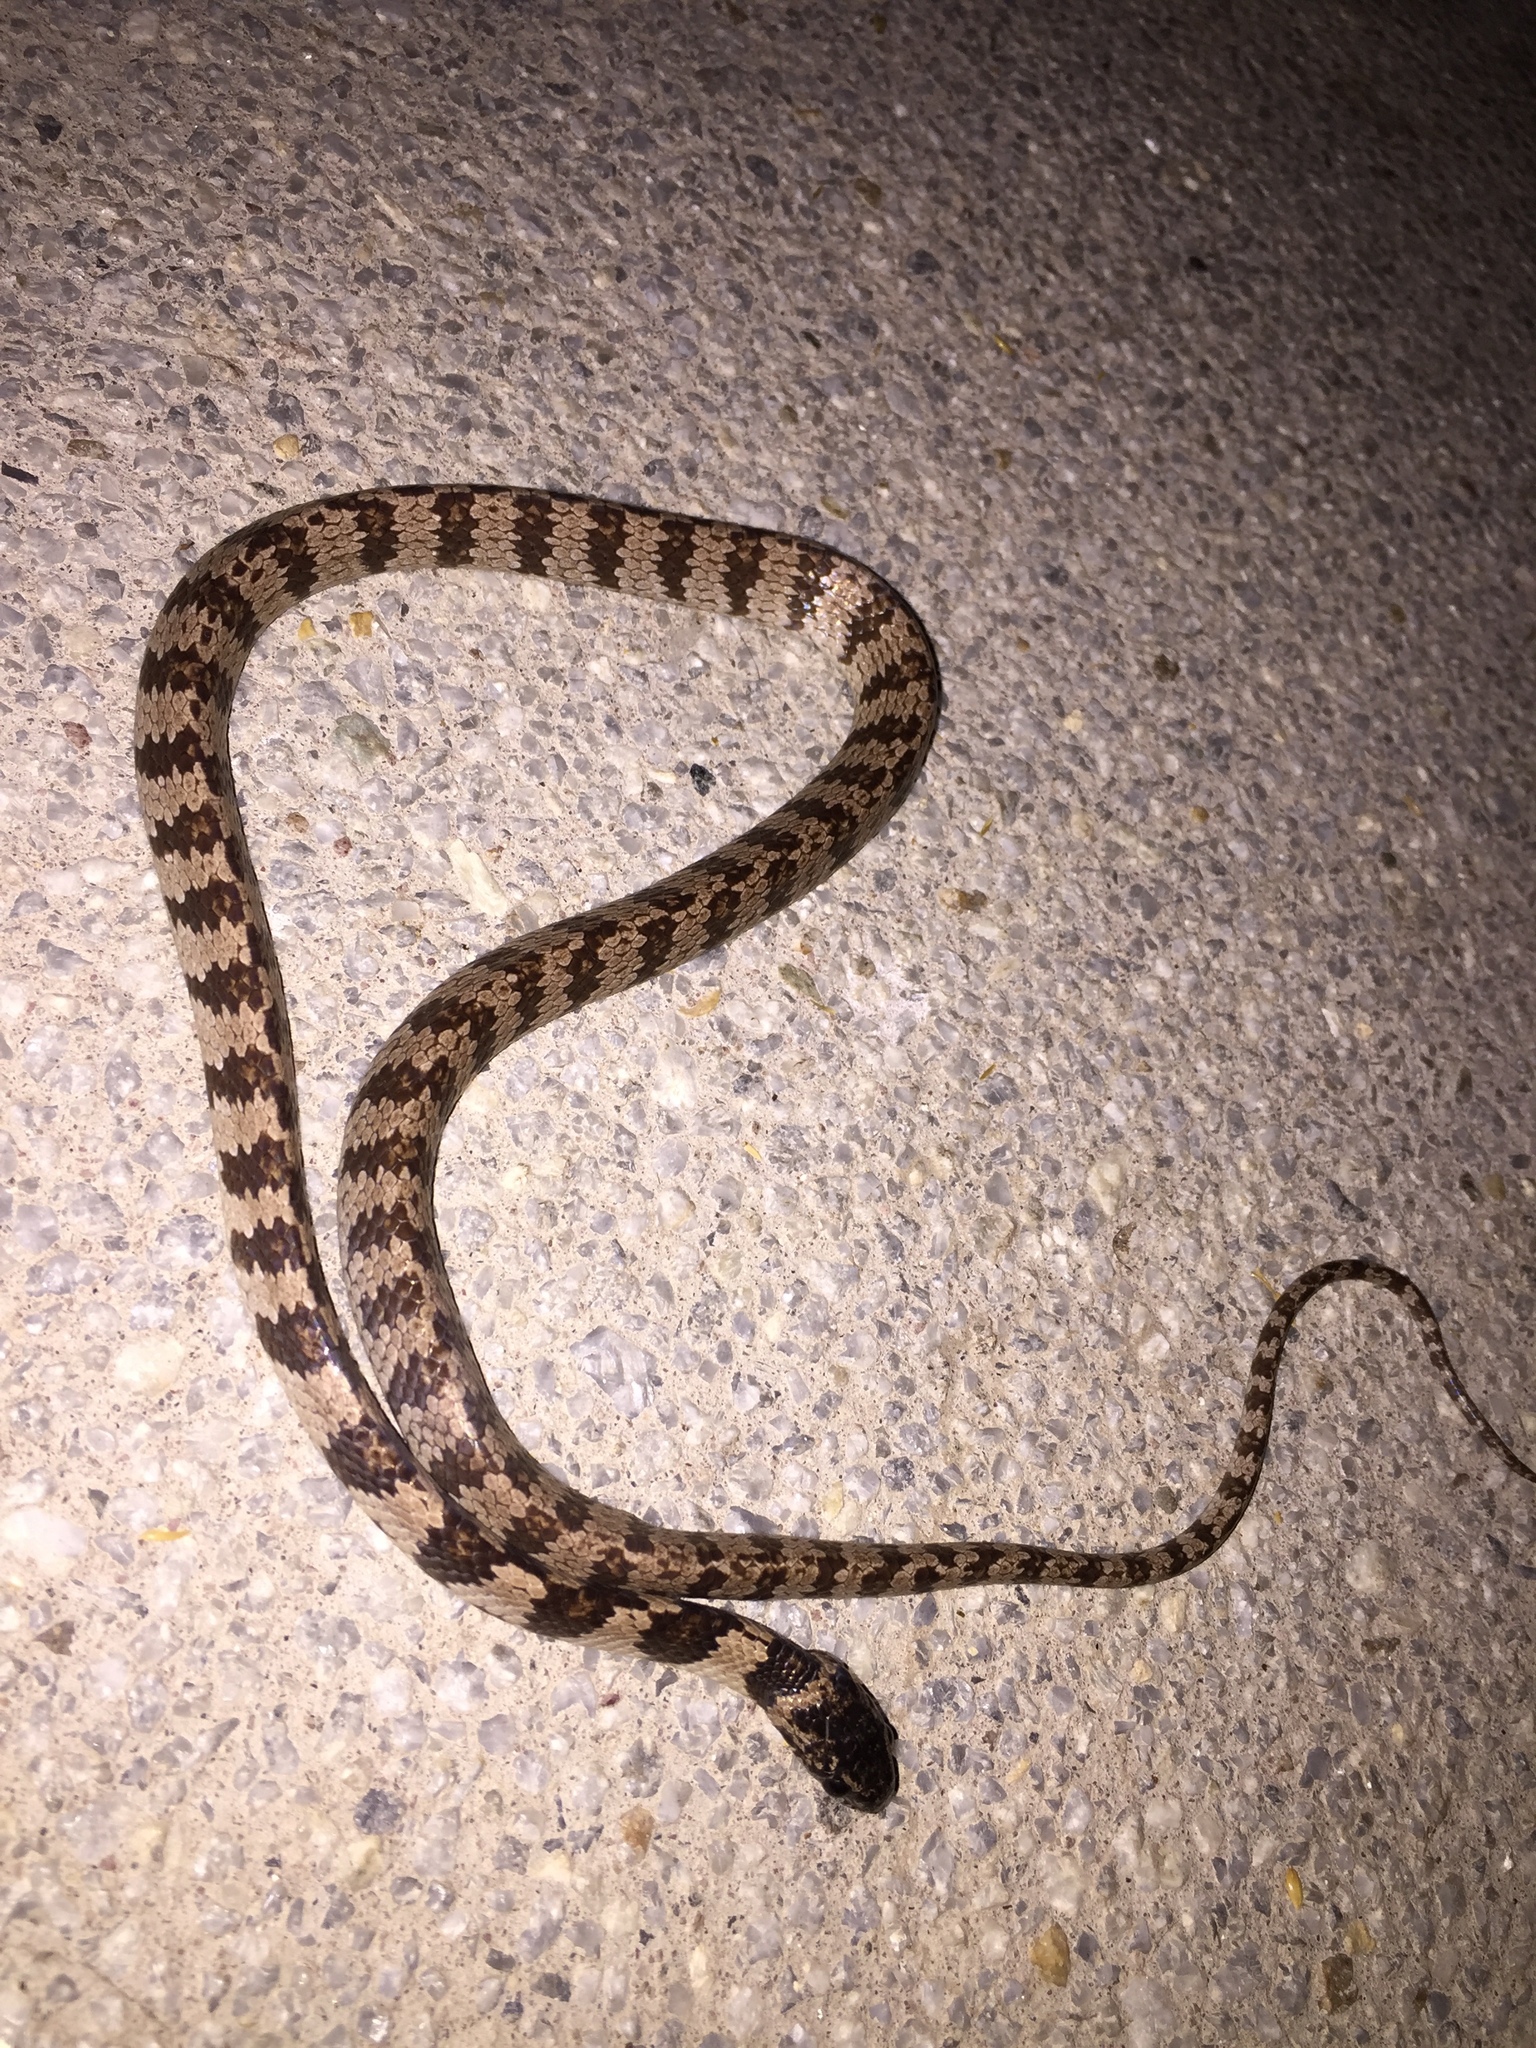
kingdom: Animalia
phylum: Chordata
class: Squamata
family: Colubridae
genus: Dipsas
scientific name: Dipsas elegans
